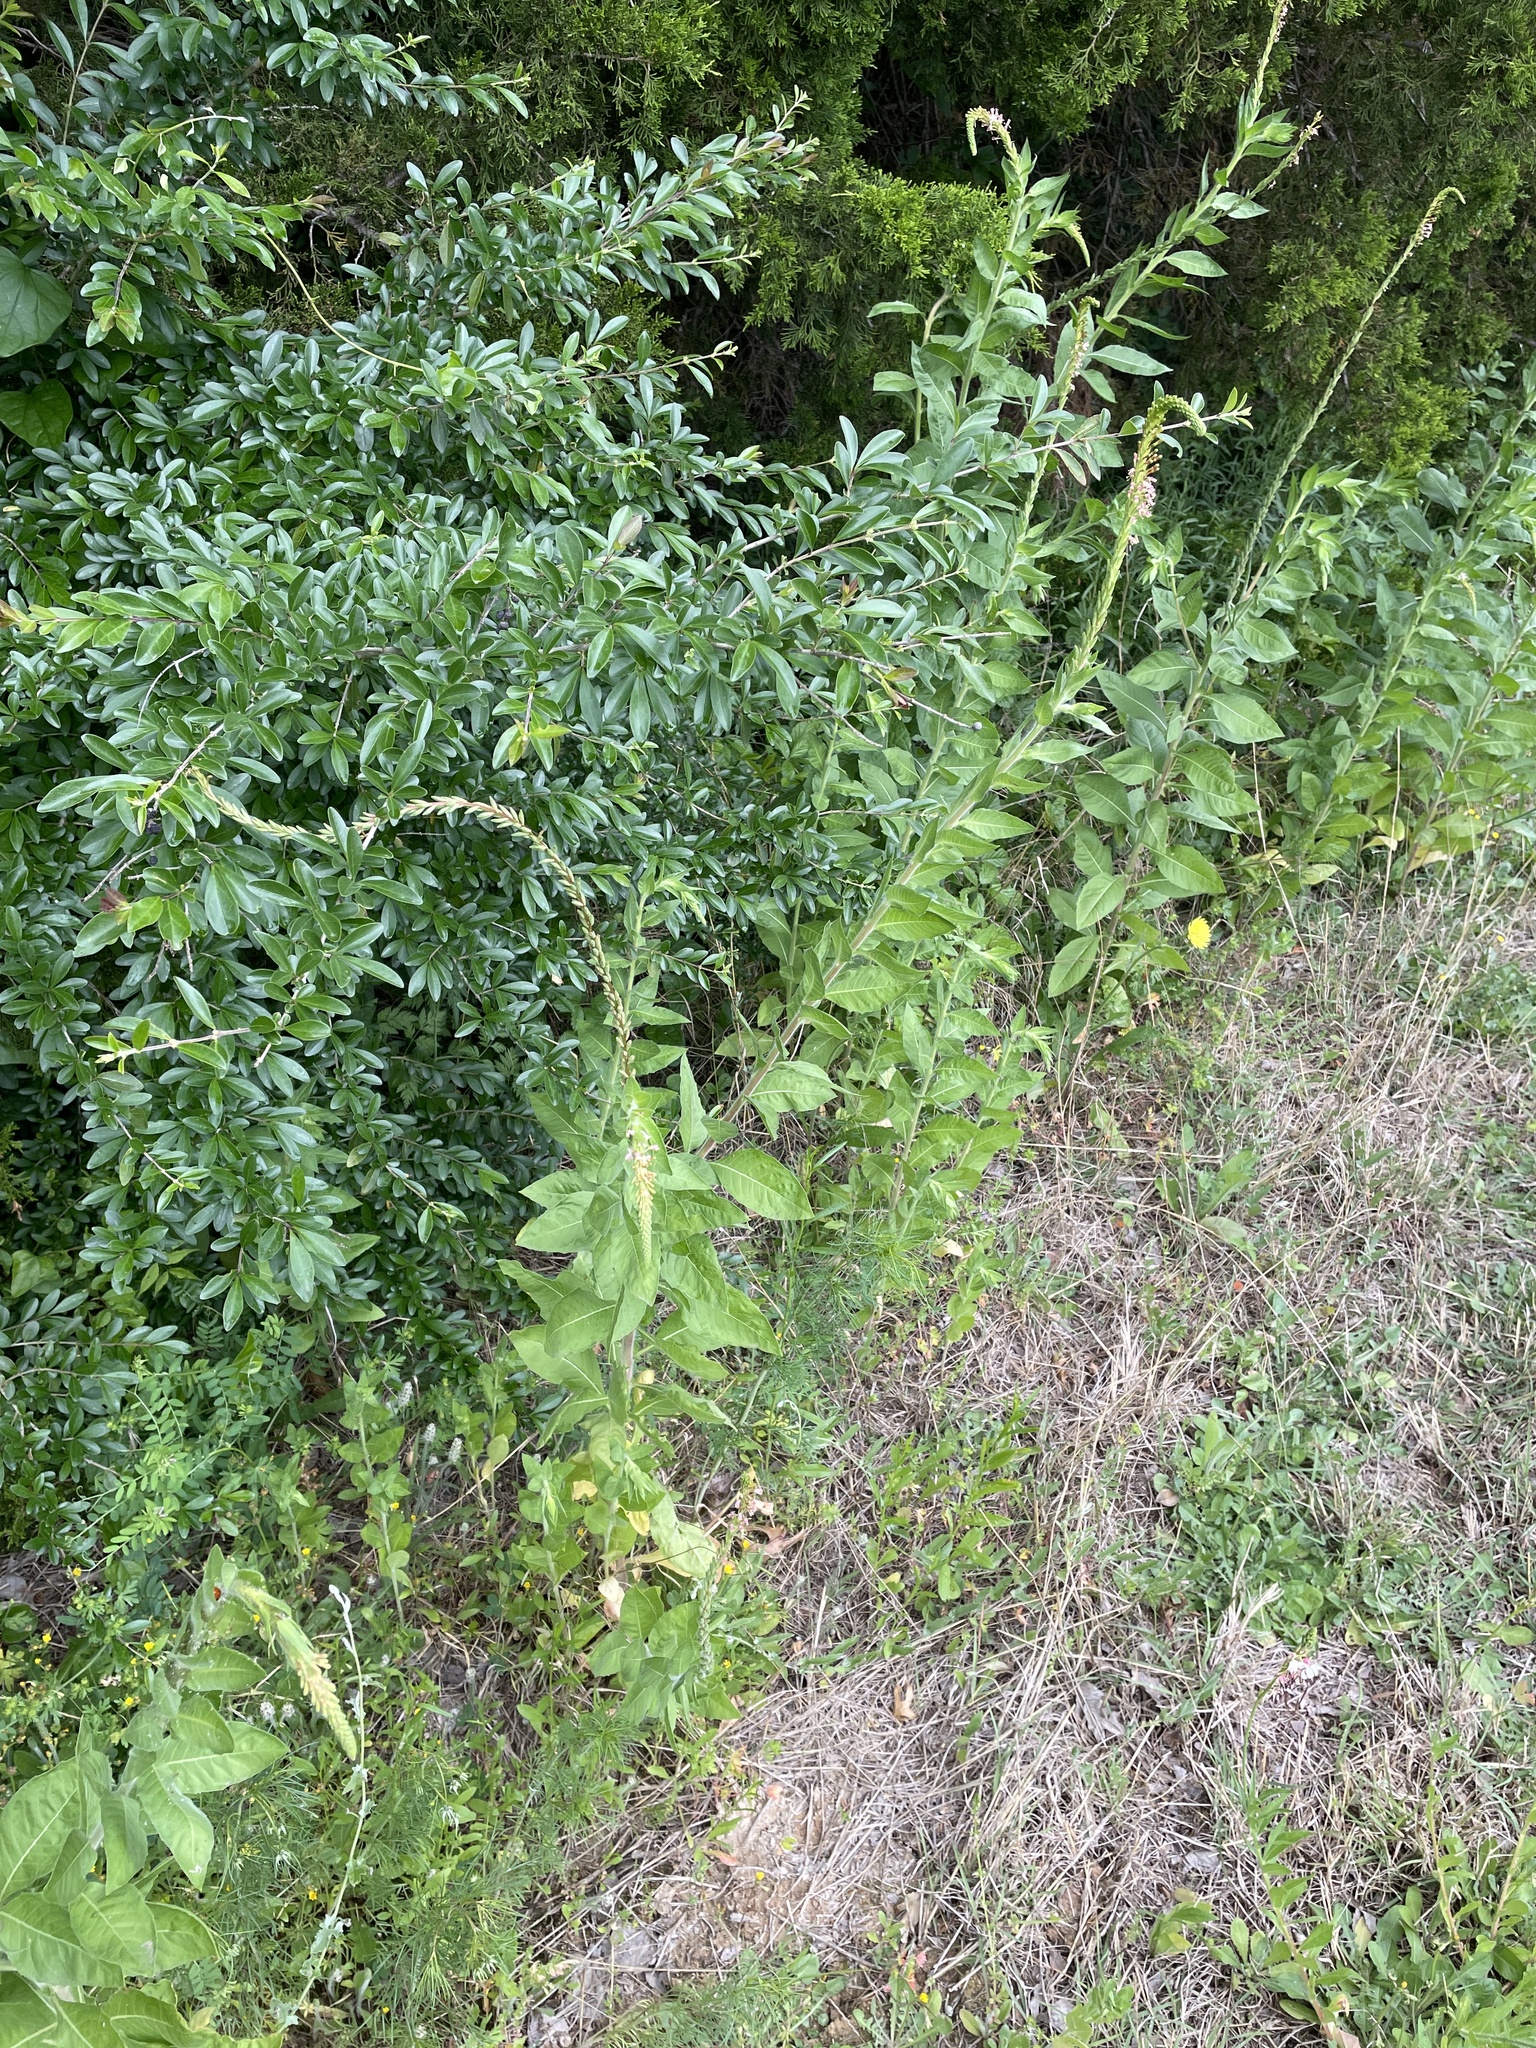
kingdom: Plantae
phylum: Tracheophyta
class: Magnoliopsida
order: Myrtales
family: Onagraceae
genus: Oenothera
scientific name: Oenothera curtiflora
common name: Velvetweed
